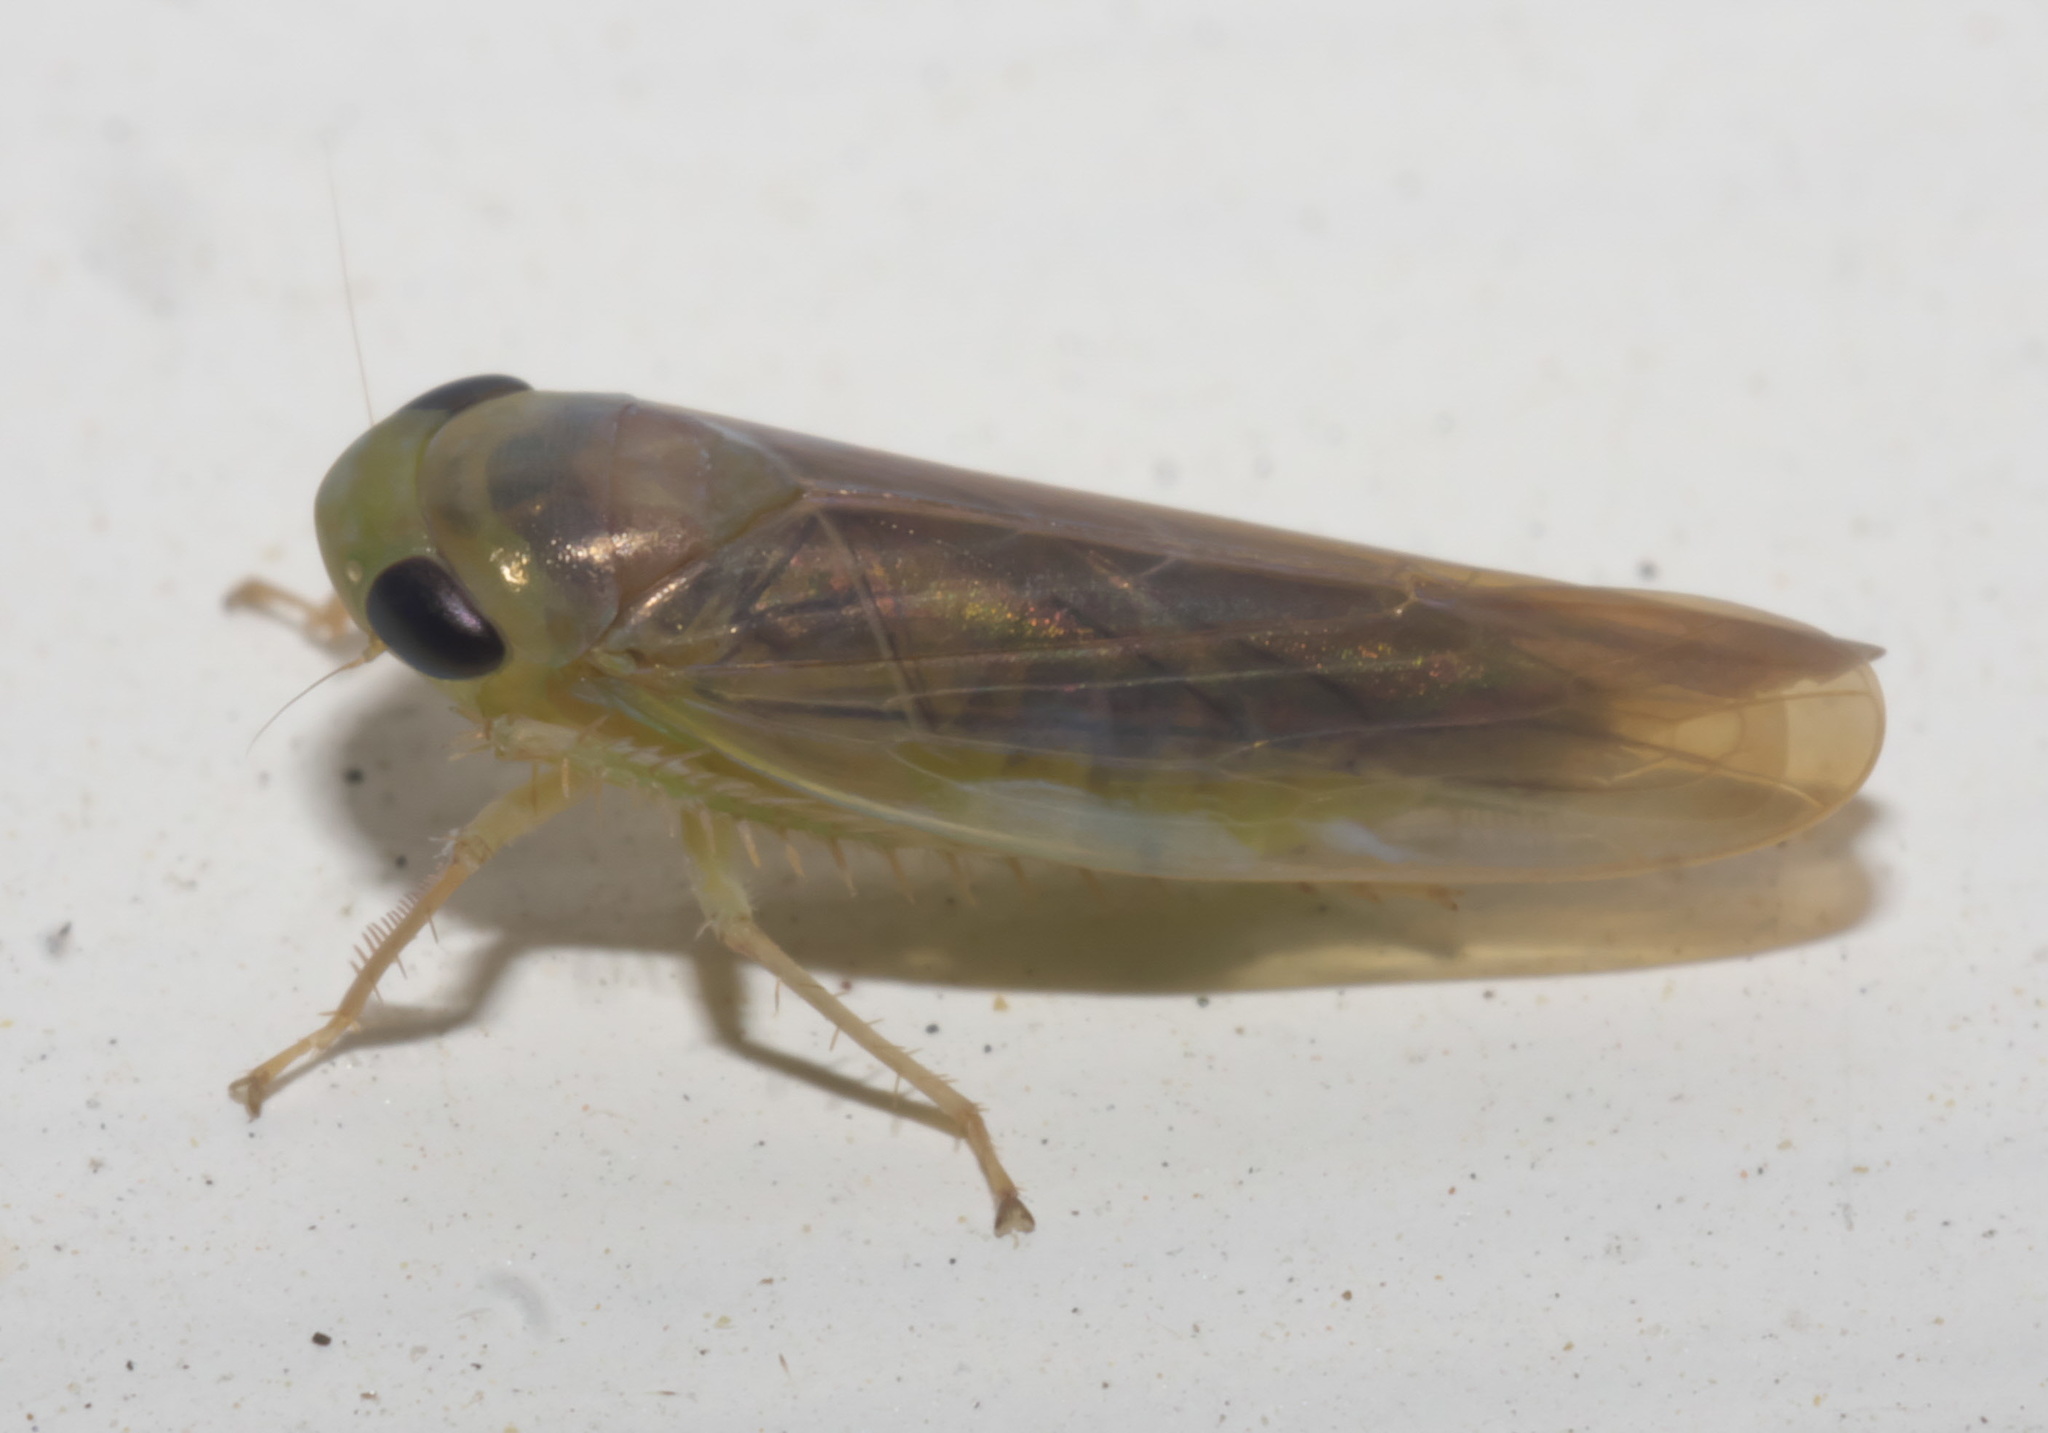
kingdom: Animalia
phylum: Arthropoda
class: Insecta
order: Hemiptera
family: Cicadellidae
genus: Chlorotettix
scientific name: Chlorotettix tergatus
